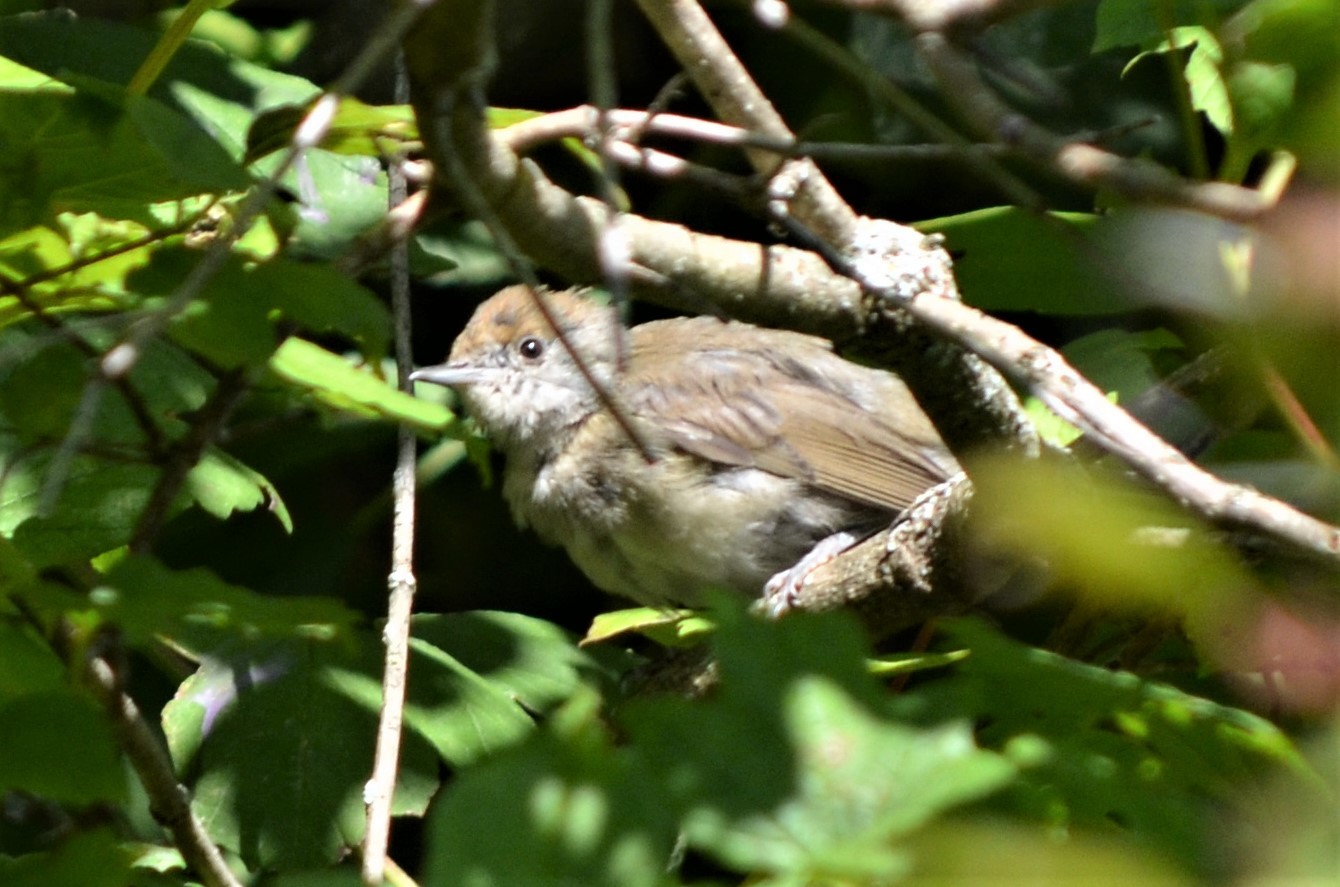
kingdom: Animalia
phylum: Chordata
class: Aves
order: Passeriformes
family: Sylviidae
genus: Sylvia
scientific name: Sylvia atricapilla
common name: Eurasian blackcap
